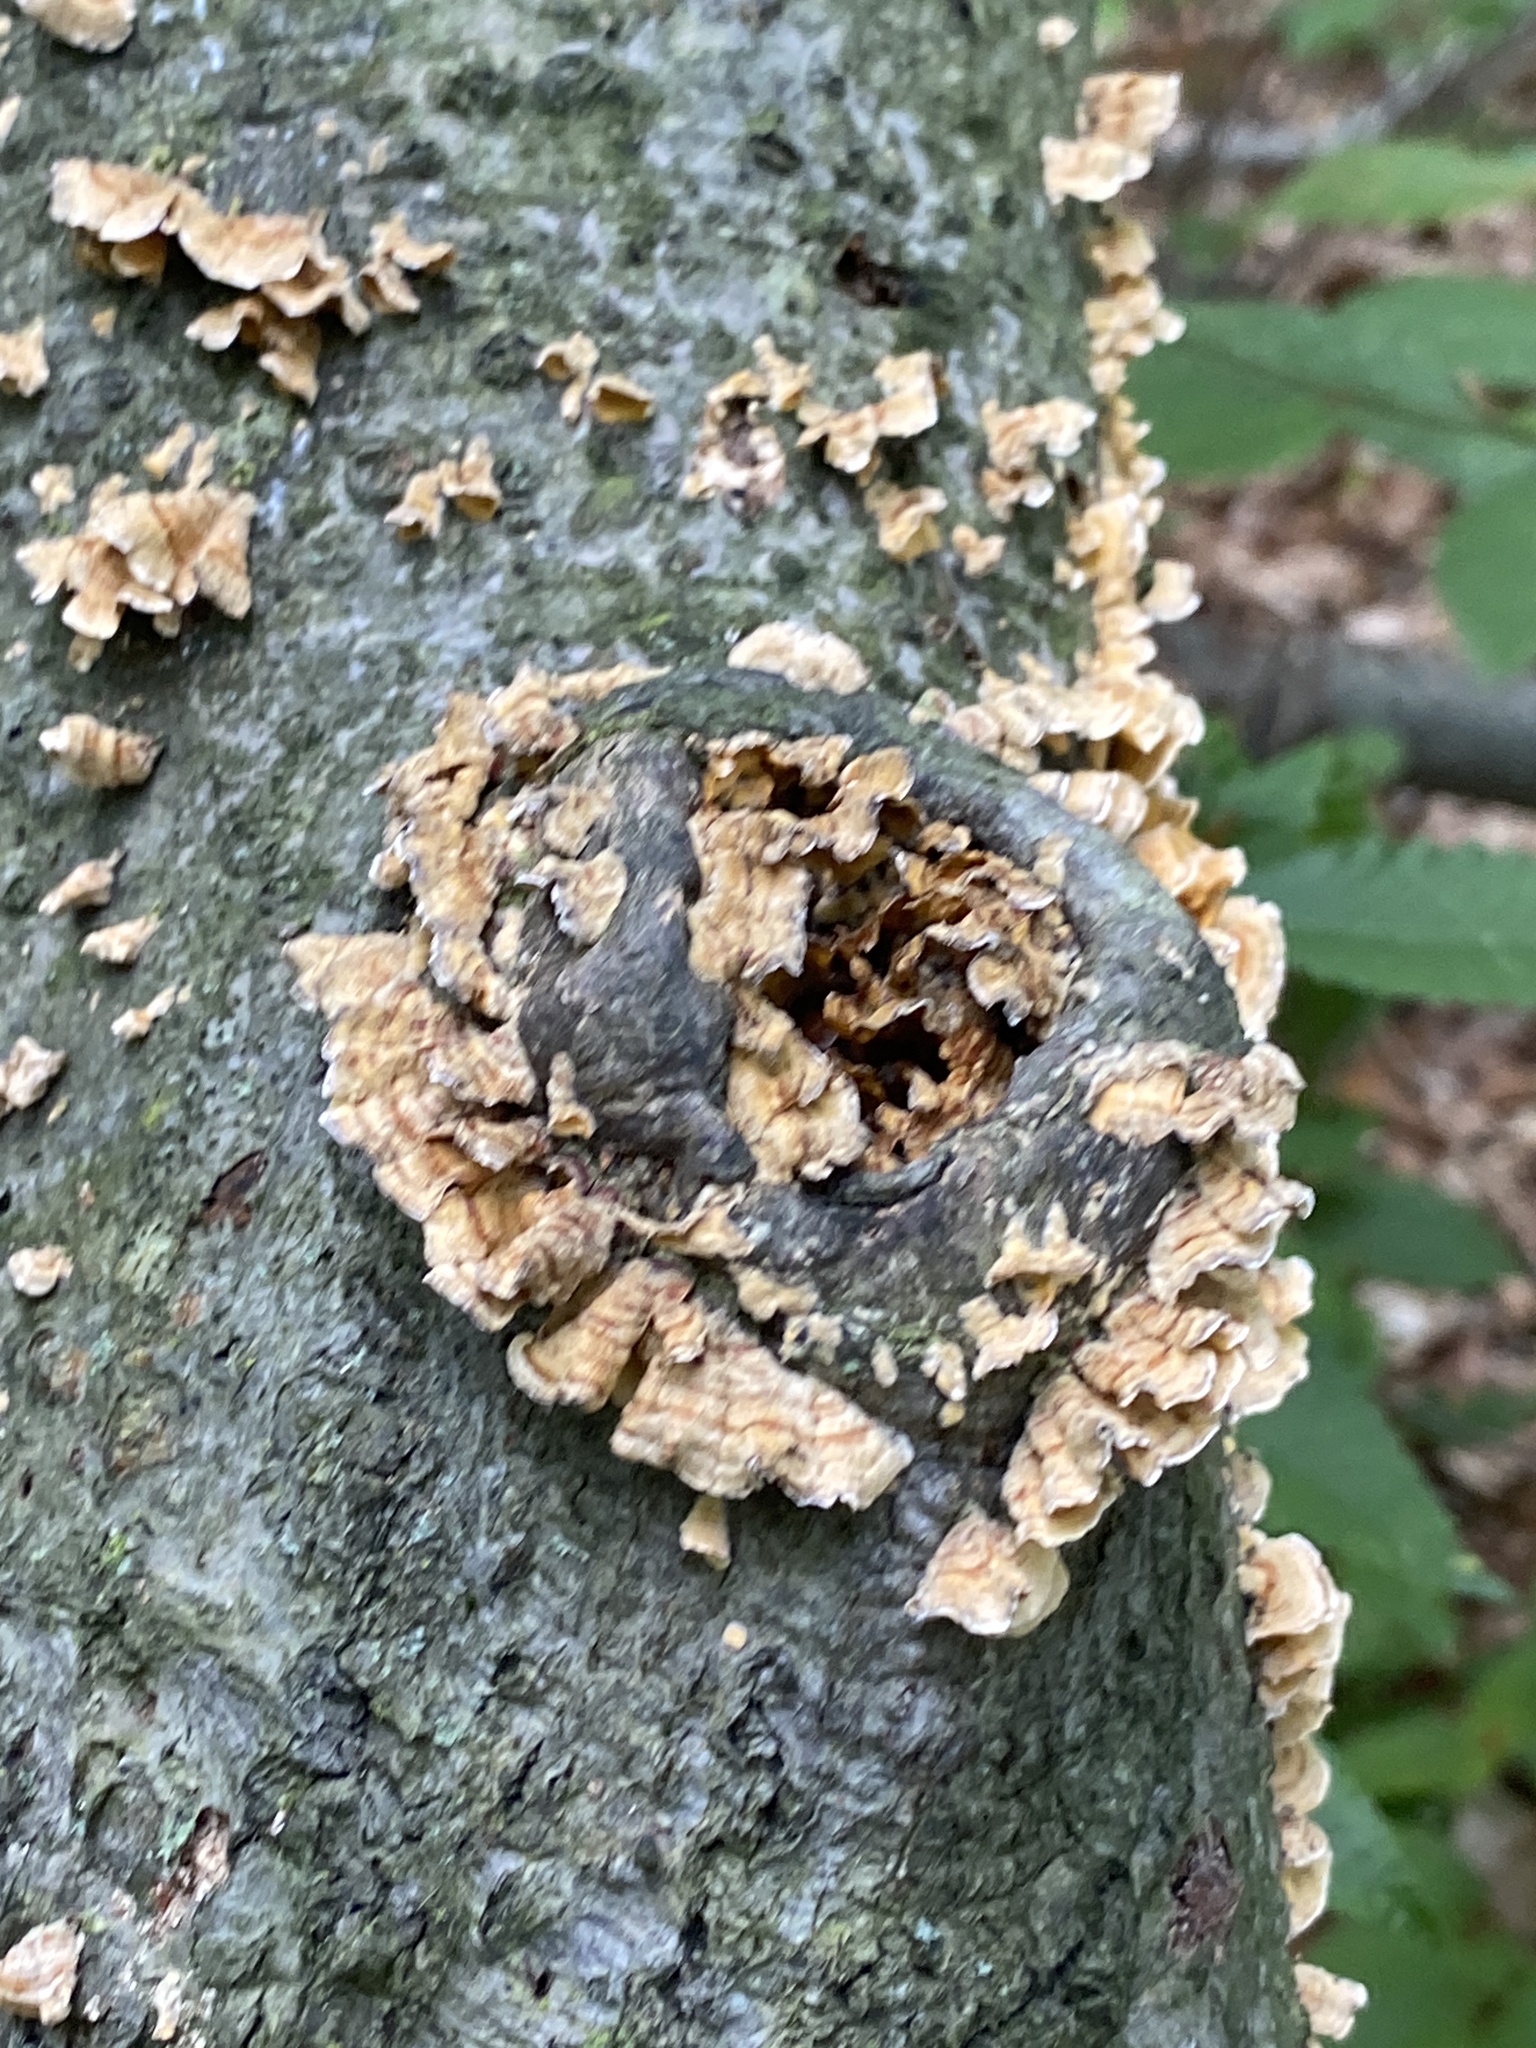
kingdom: Fungi
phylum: Basidiomycota
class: Agaricomycetes
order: Russulales
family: Stereaceae
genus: Stereum
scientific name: Stereum complicatum
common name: Crowded parchment
